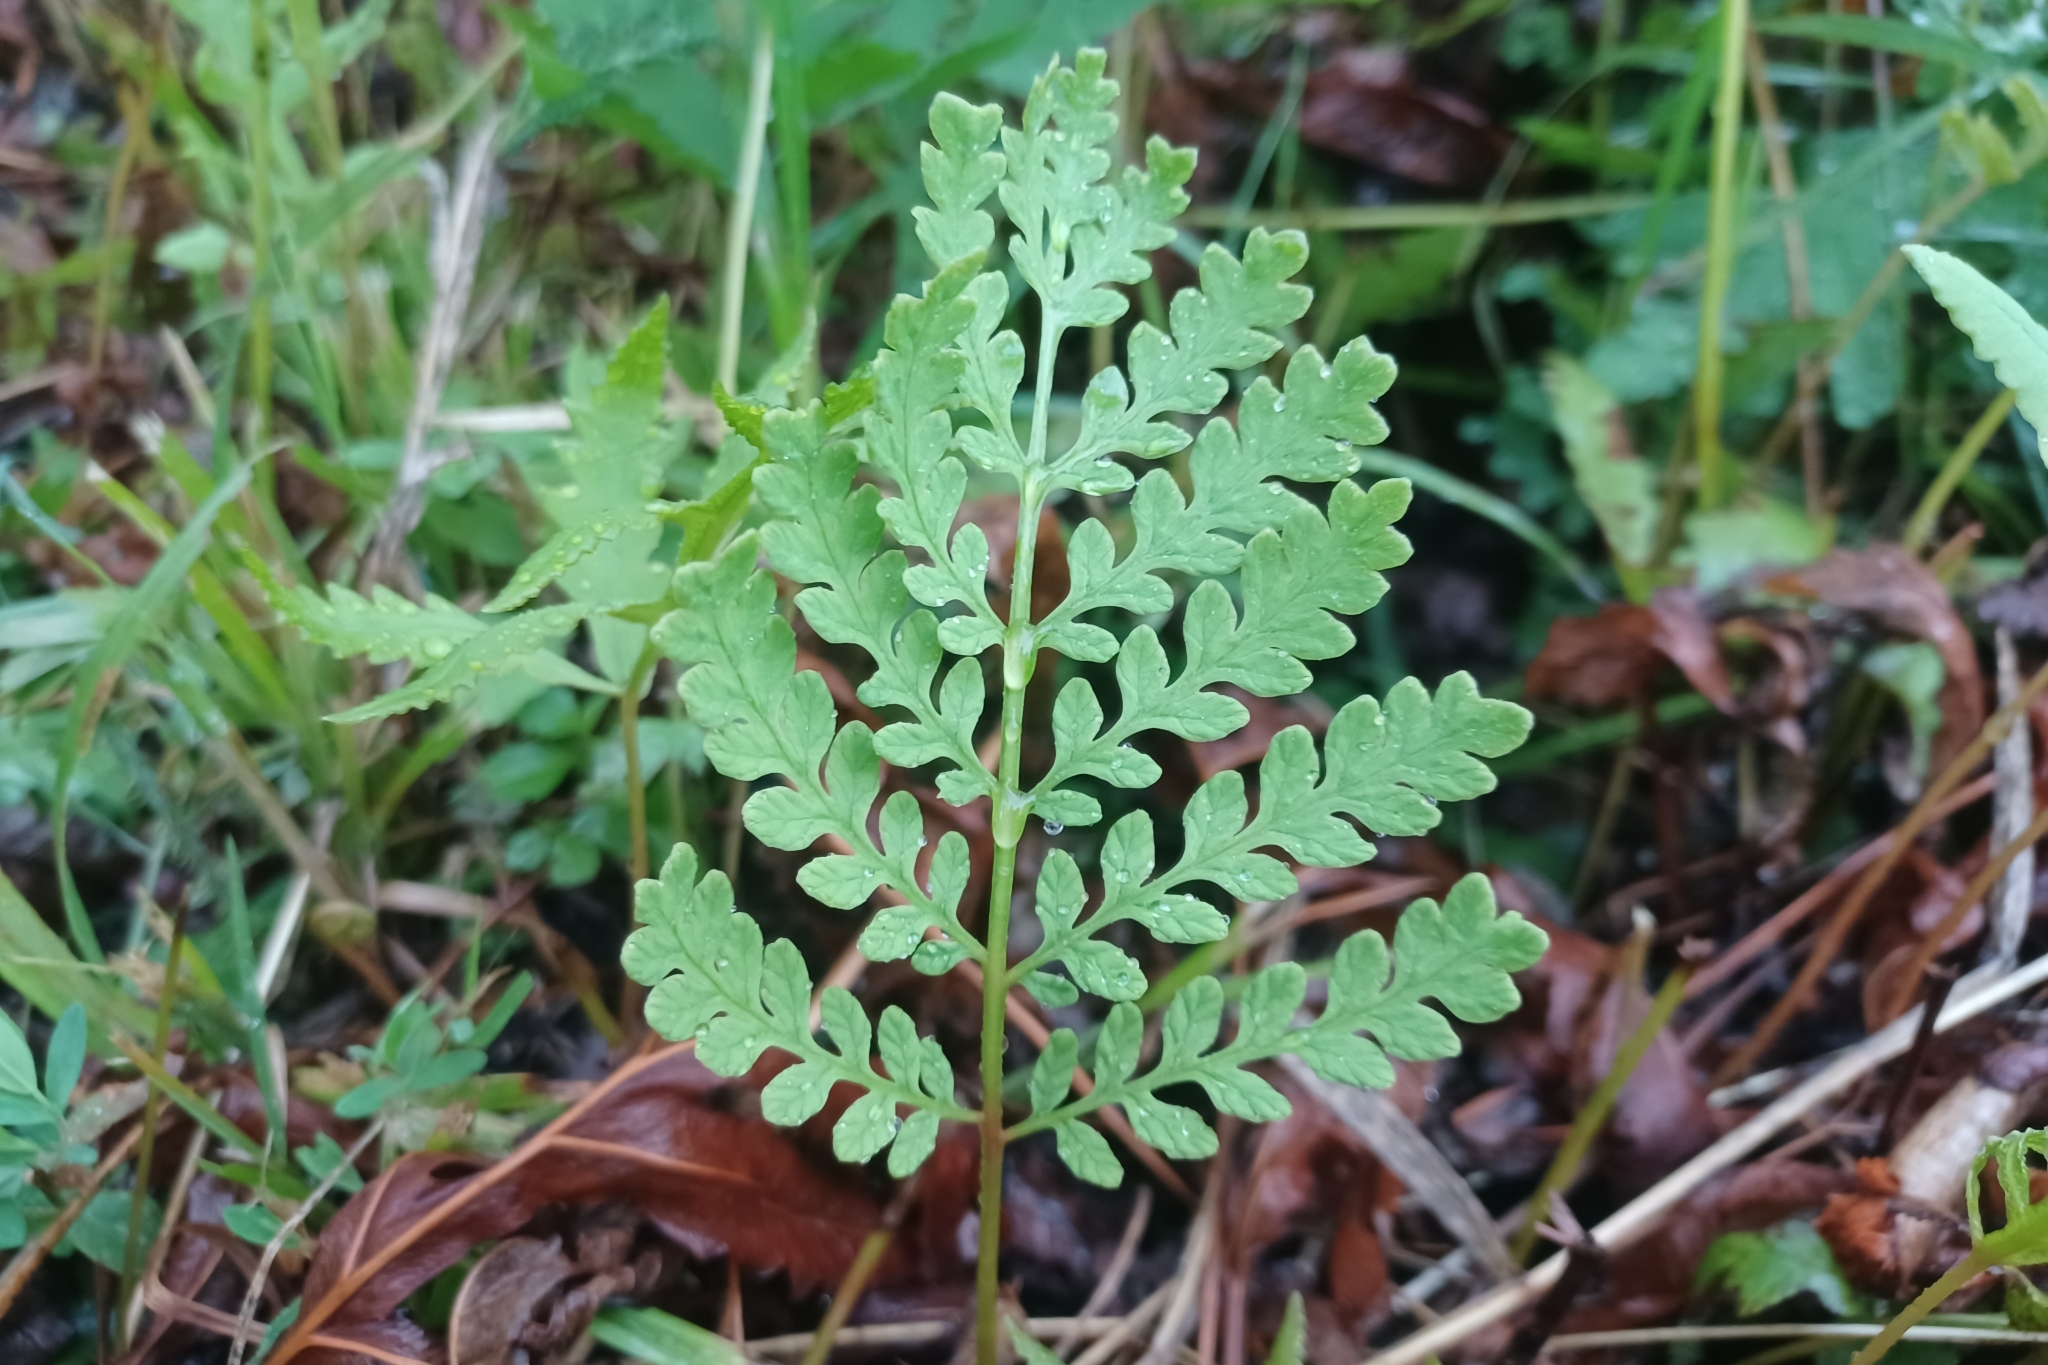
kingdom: Plantae
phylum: Tracheophyta
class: Polypodiopsida
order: Polypodiales
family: Onocleaceae
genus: Onoclea
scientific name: Onoclea sensibilis
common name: Sensitive fern
